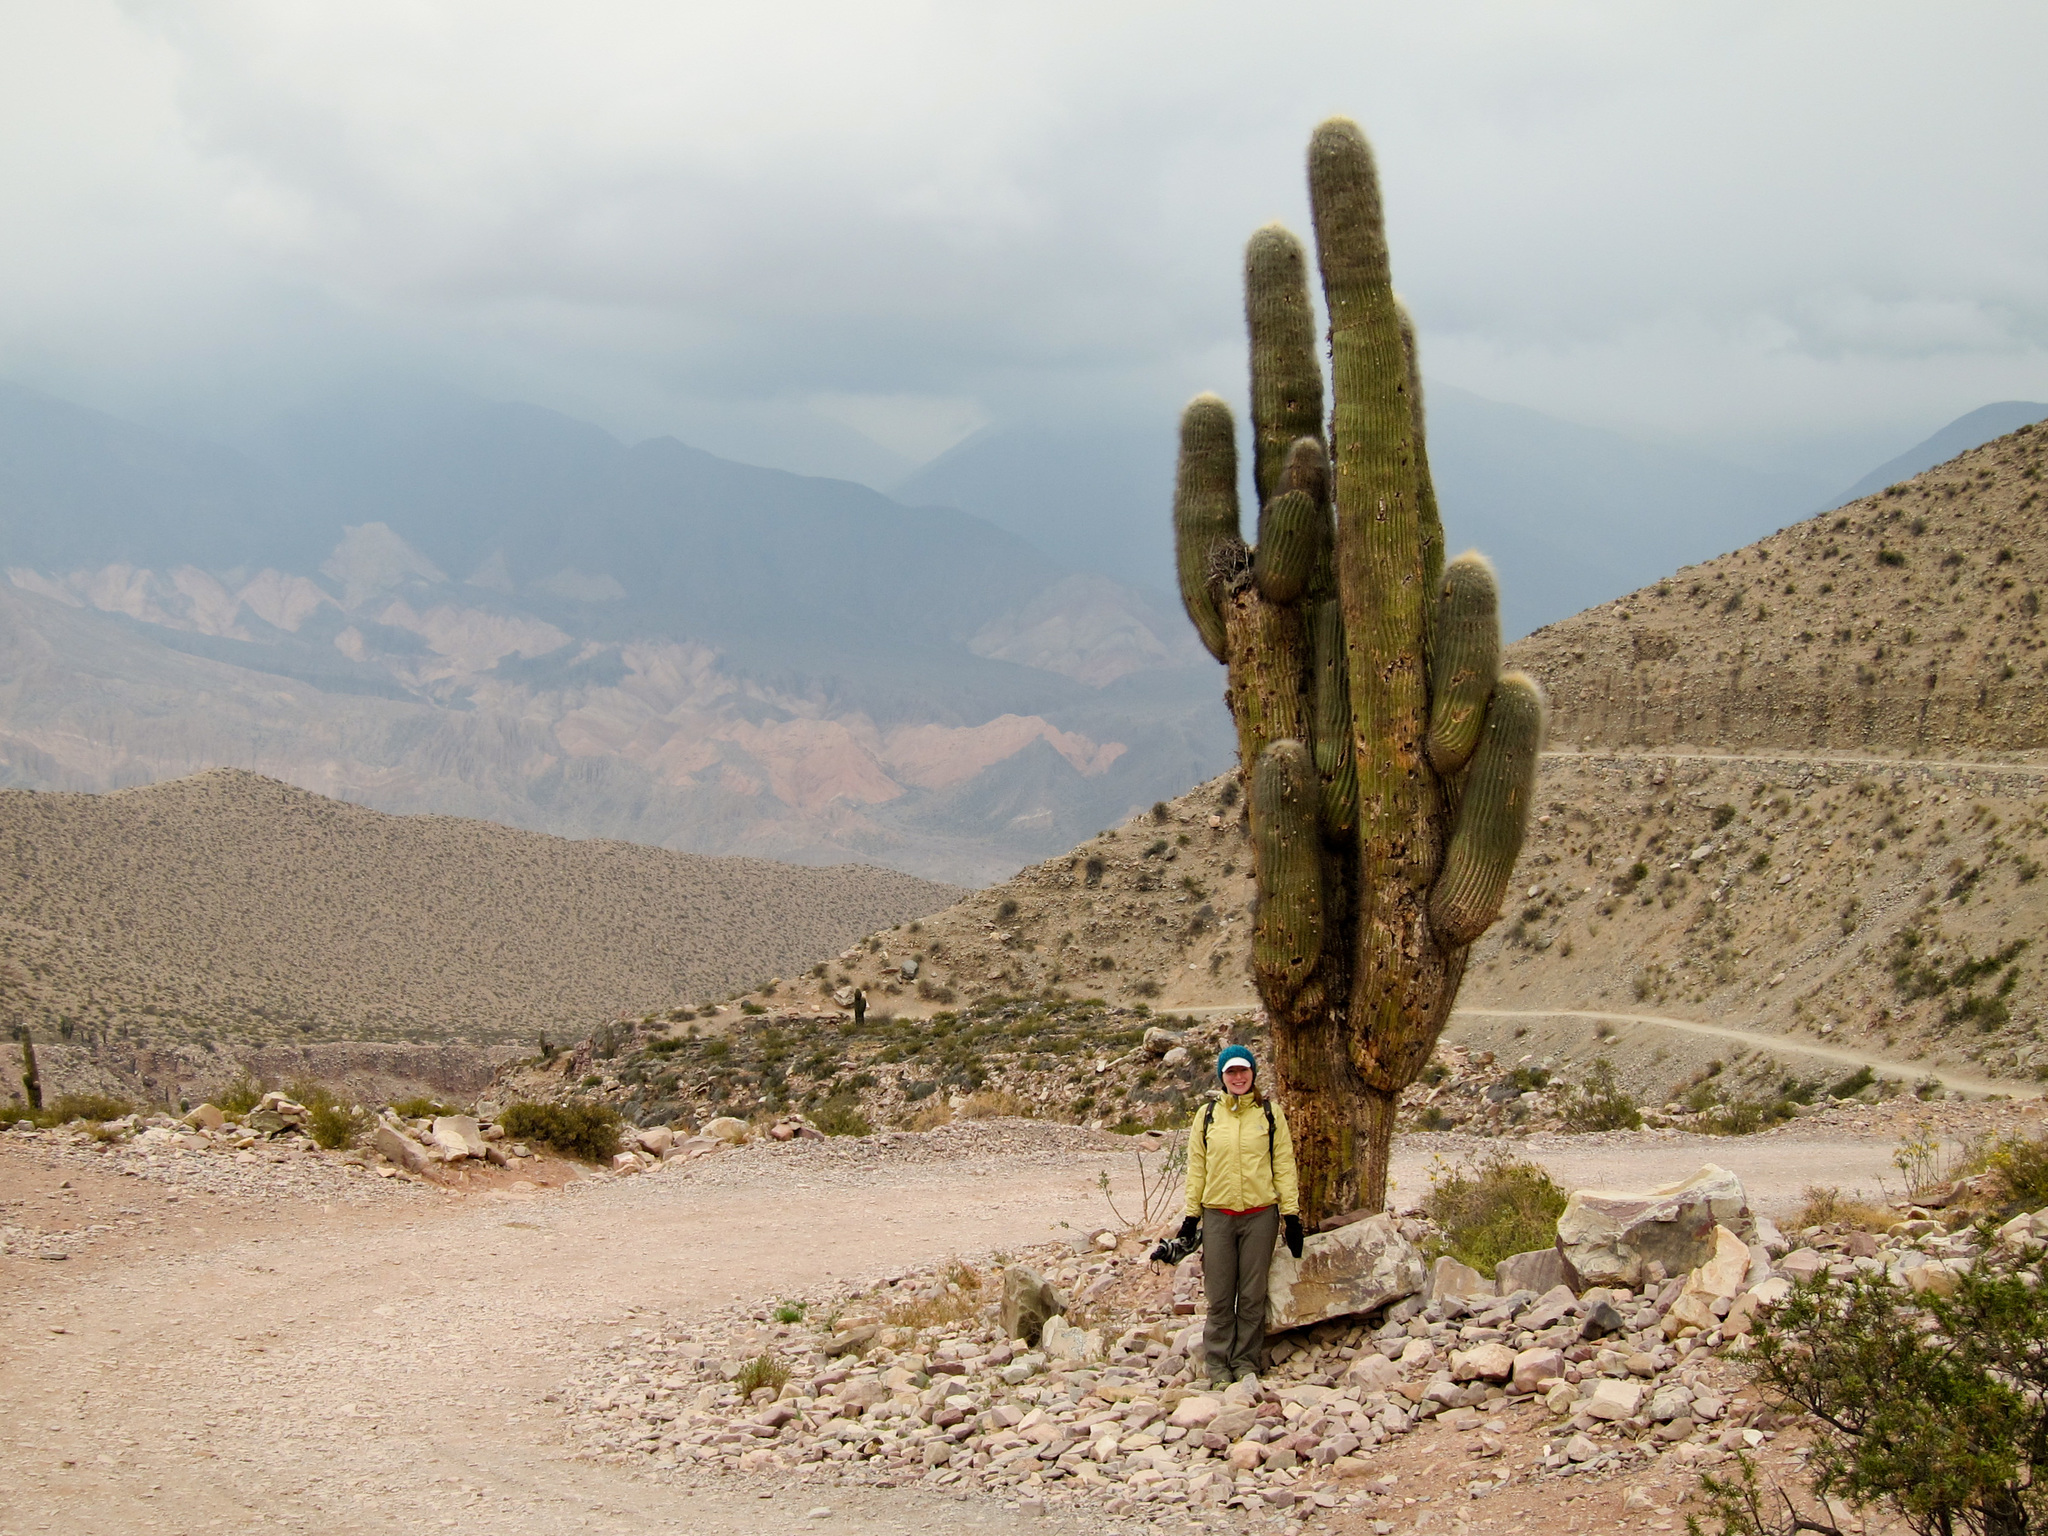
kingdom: Plantae
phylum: Tracheophyta
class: Magnoliopsida
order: Caryophyllales
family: Cactaceae
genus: Leucostele
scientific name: Leucostele atacamensis
